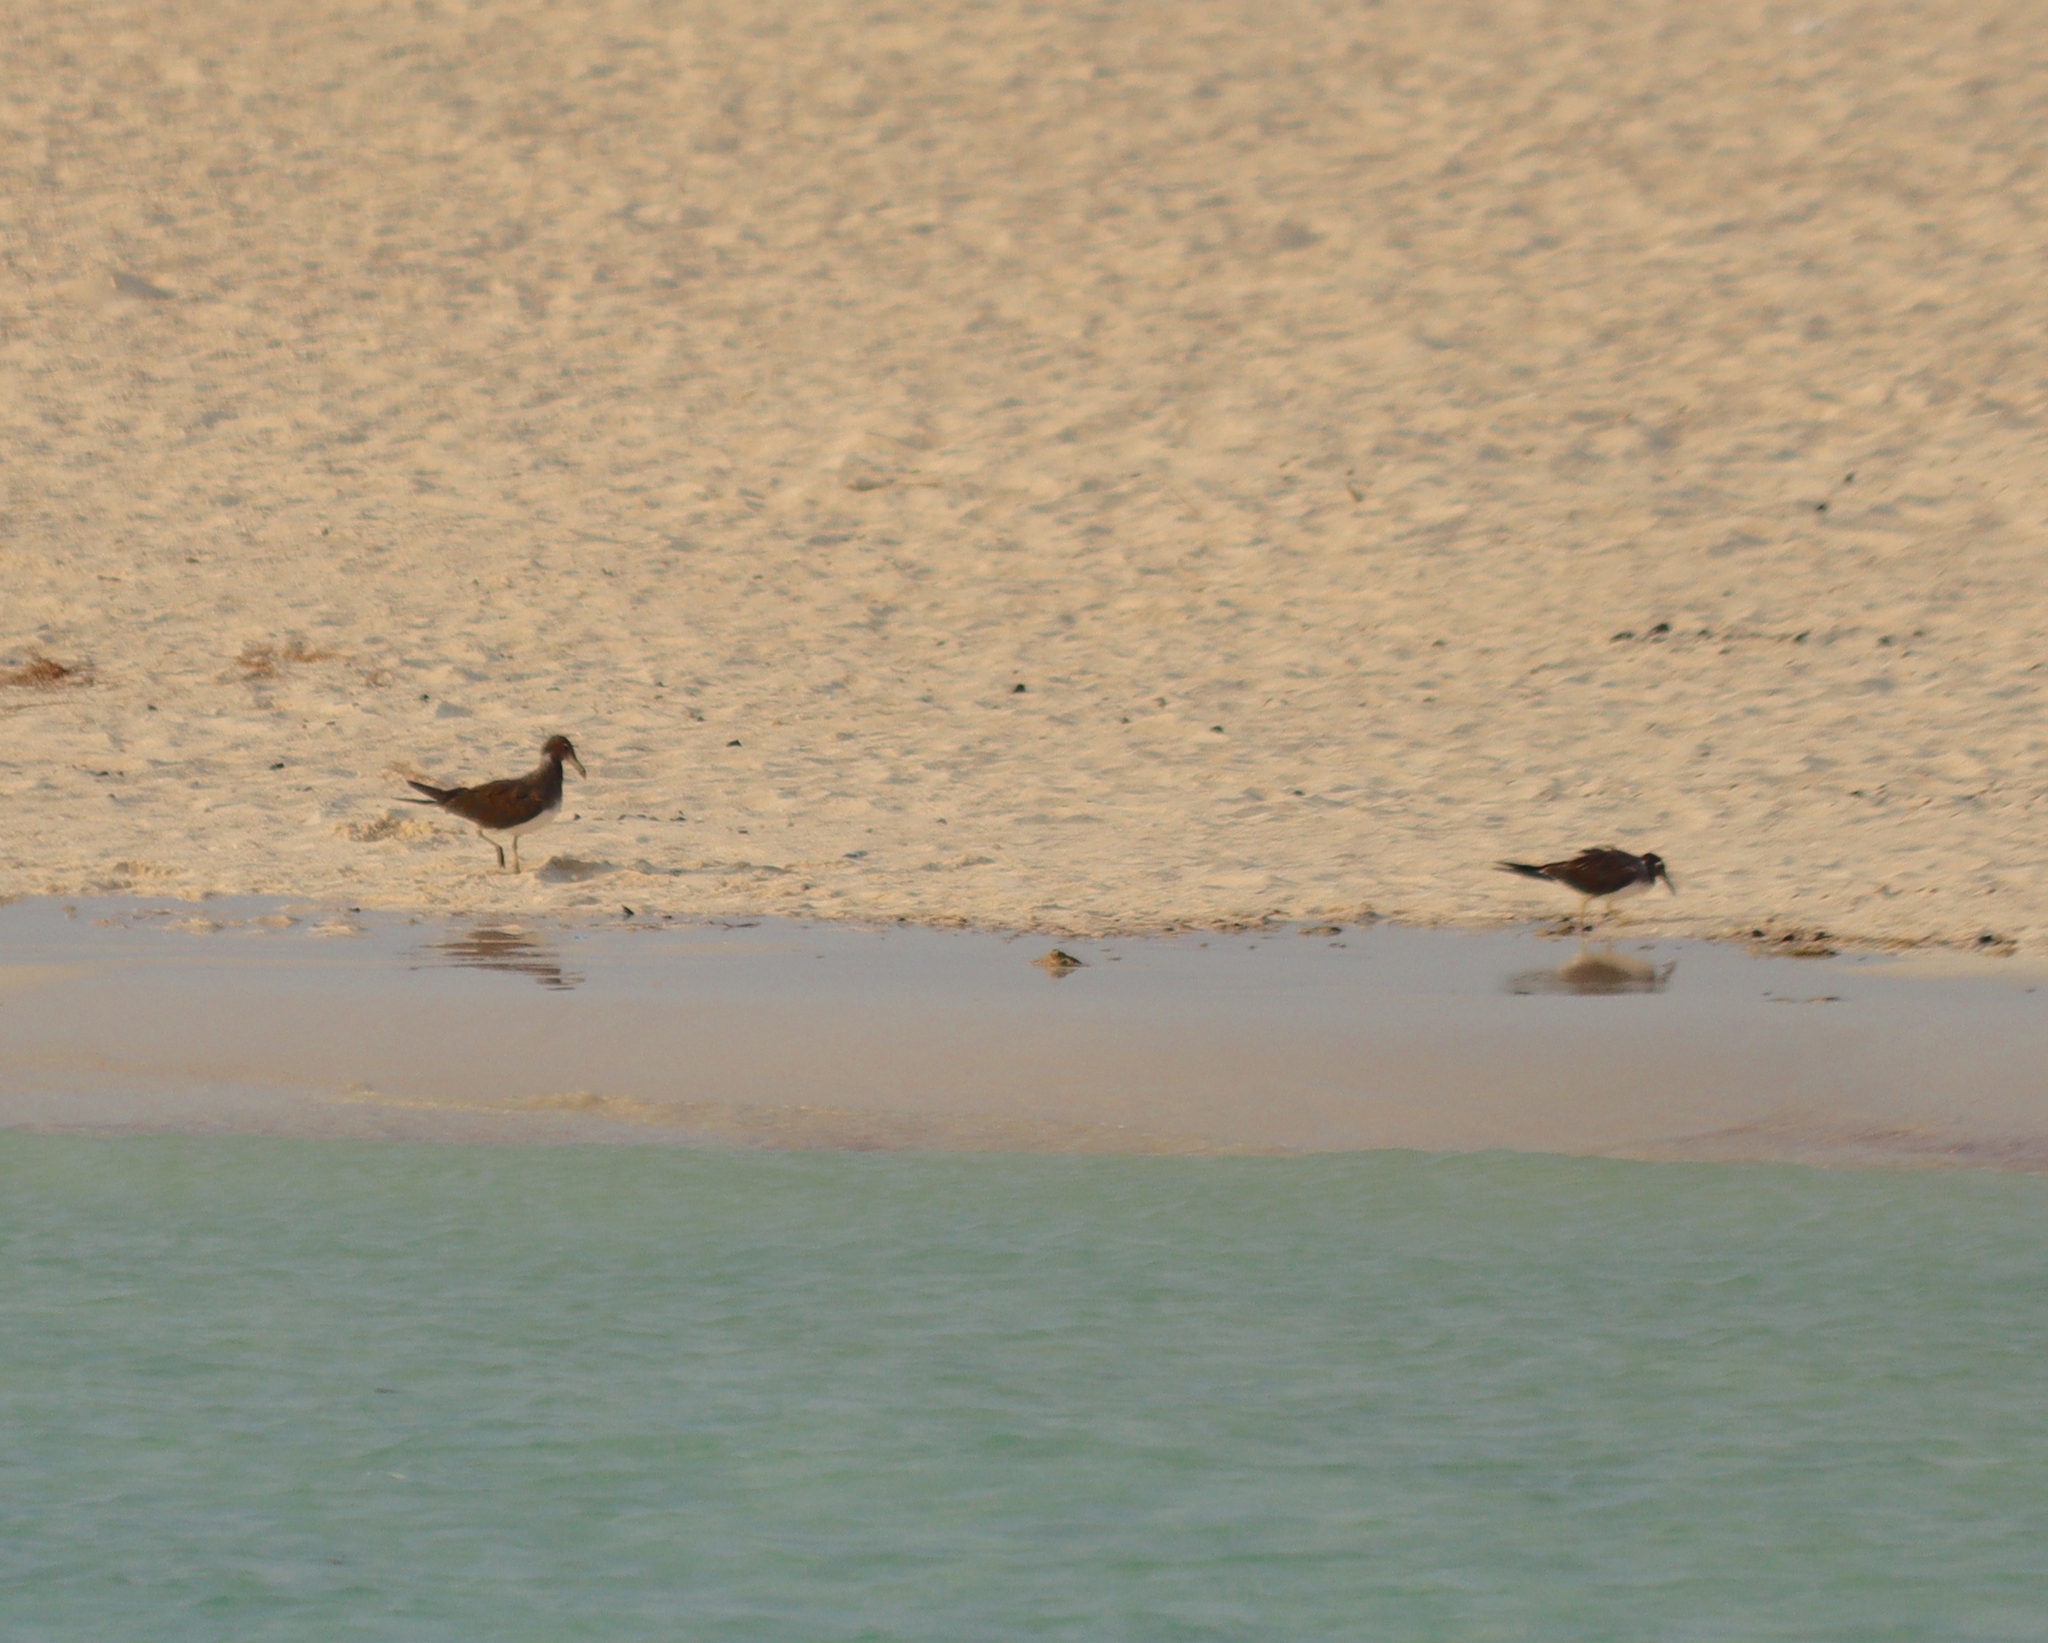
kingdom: Animalia
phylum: Chordata
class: Aves
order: Charadriiformes
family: Laridae
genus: Ichthyaetus
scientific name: Ichthyaetus hemprichii
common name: Sooty gull
